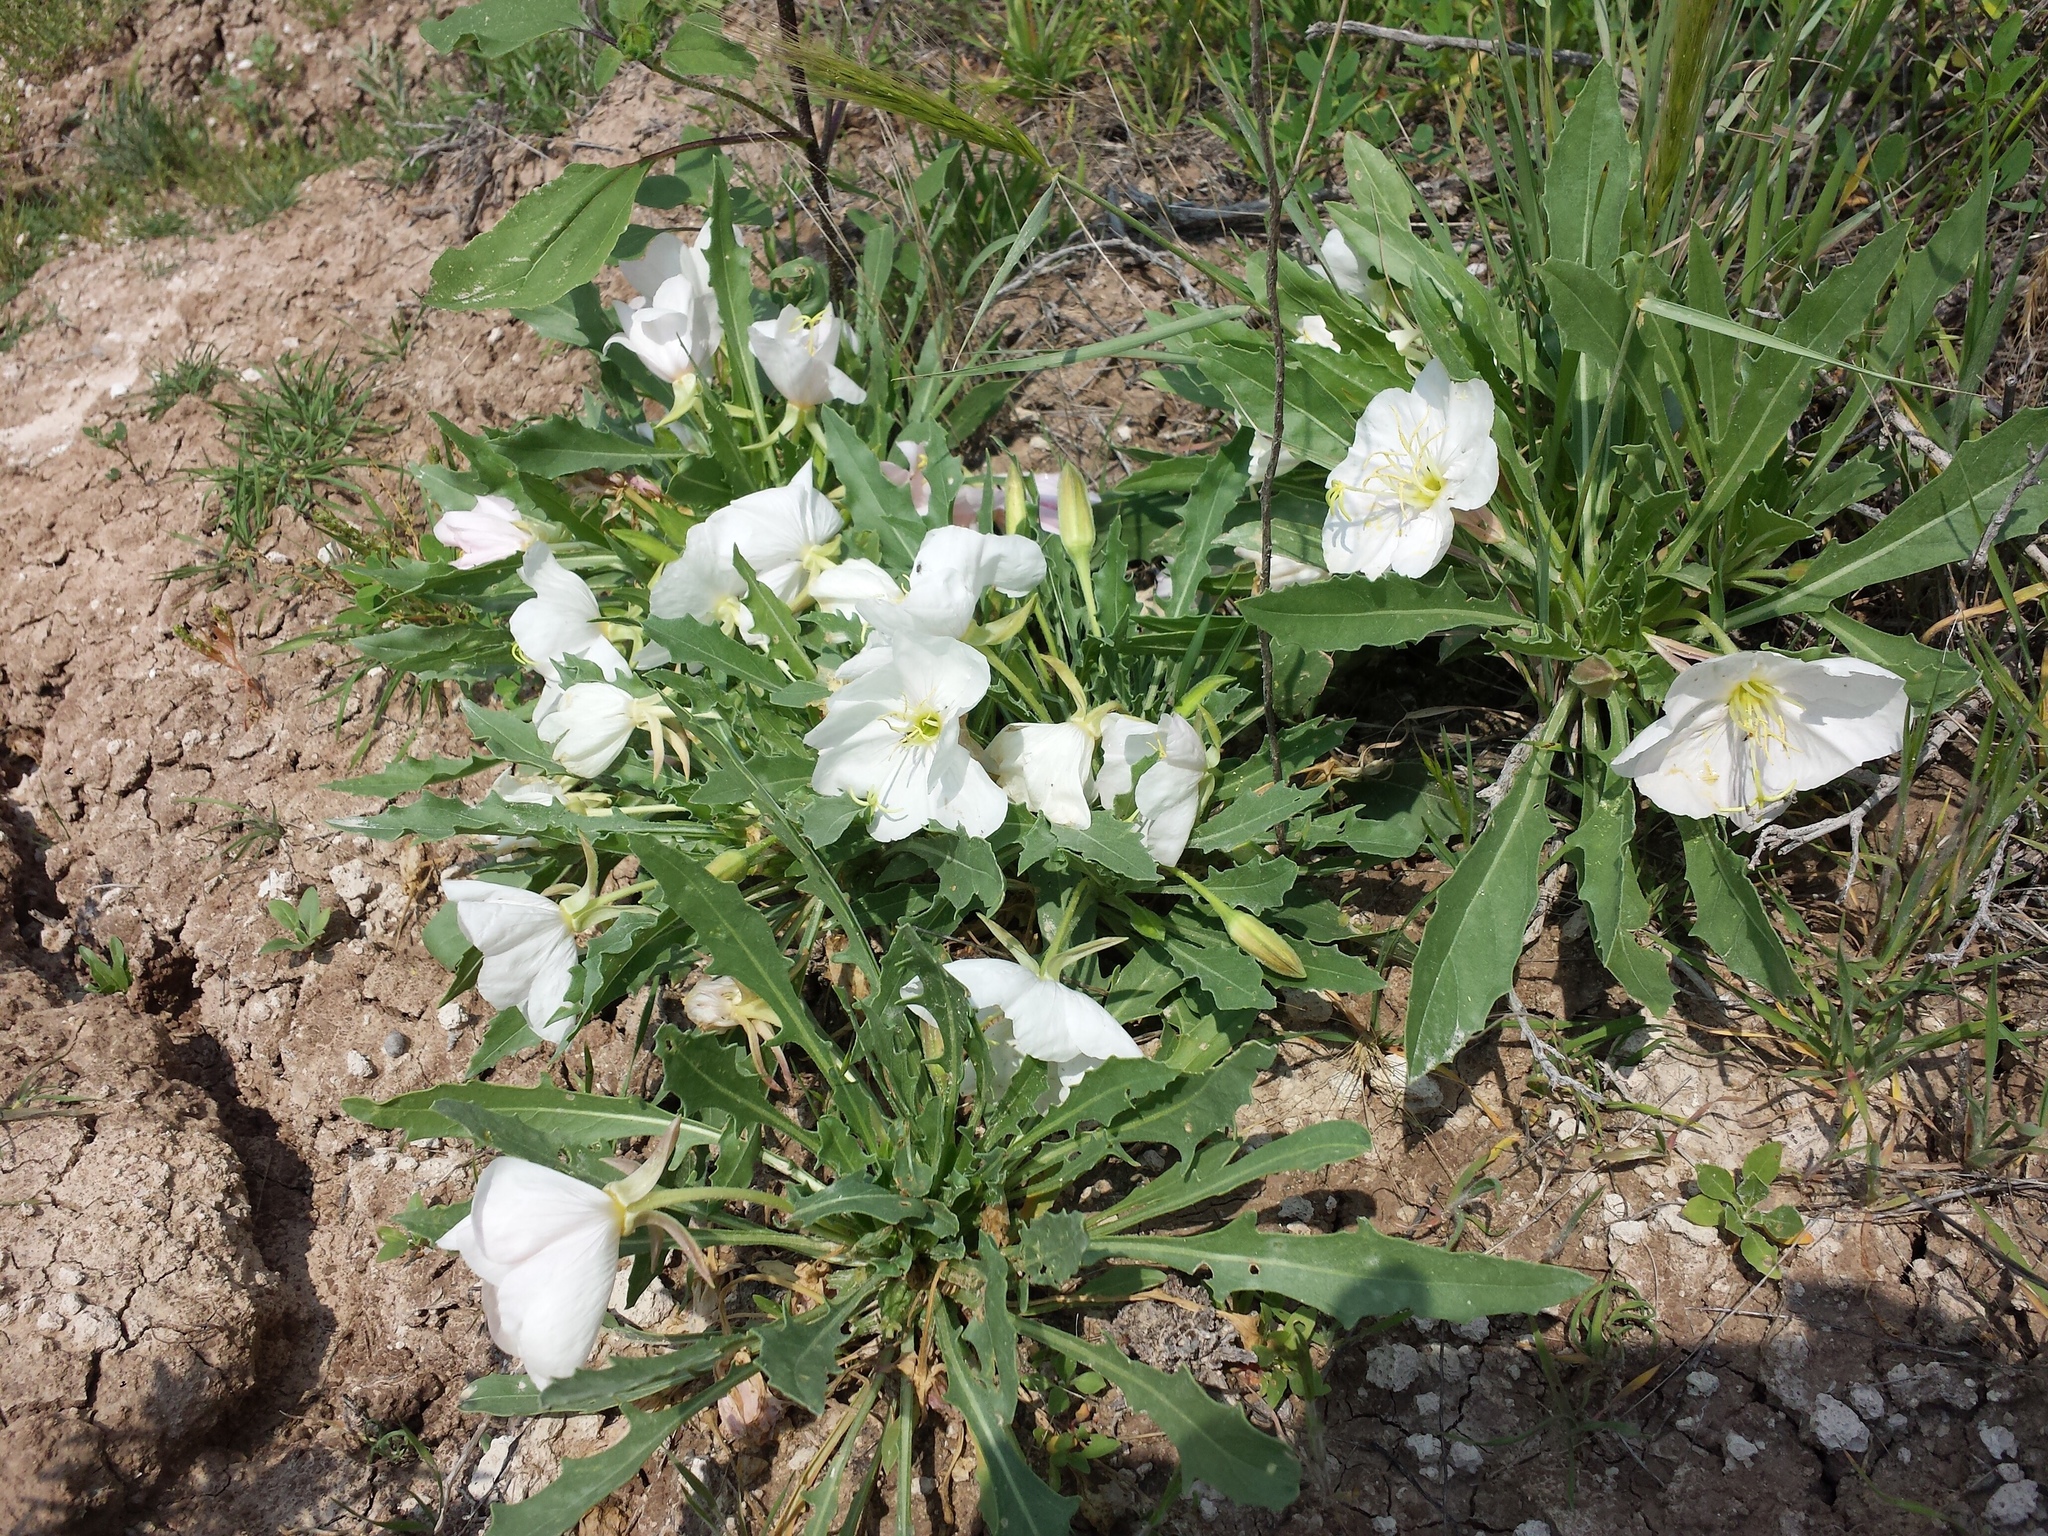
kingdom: Plantae
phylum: Tracheophyta
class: Magnoliopsida
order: Myrtales
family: Onagraceae
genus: Oenothera
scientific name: Oenothera cespitosa
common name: Tufted evening-primrose
